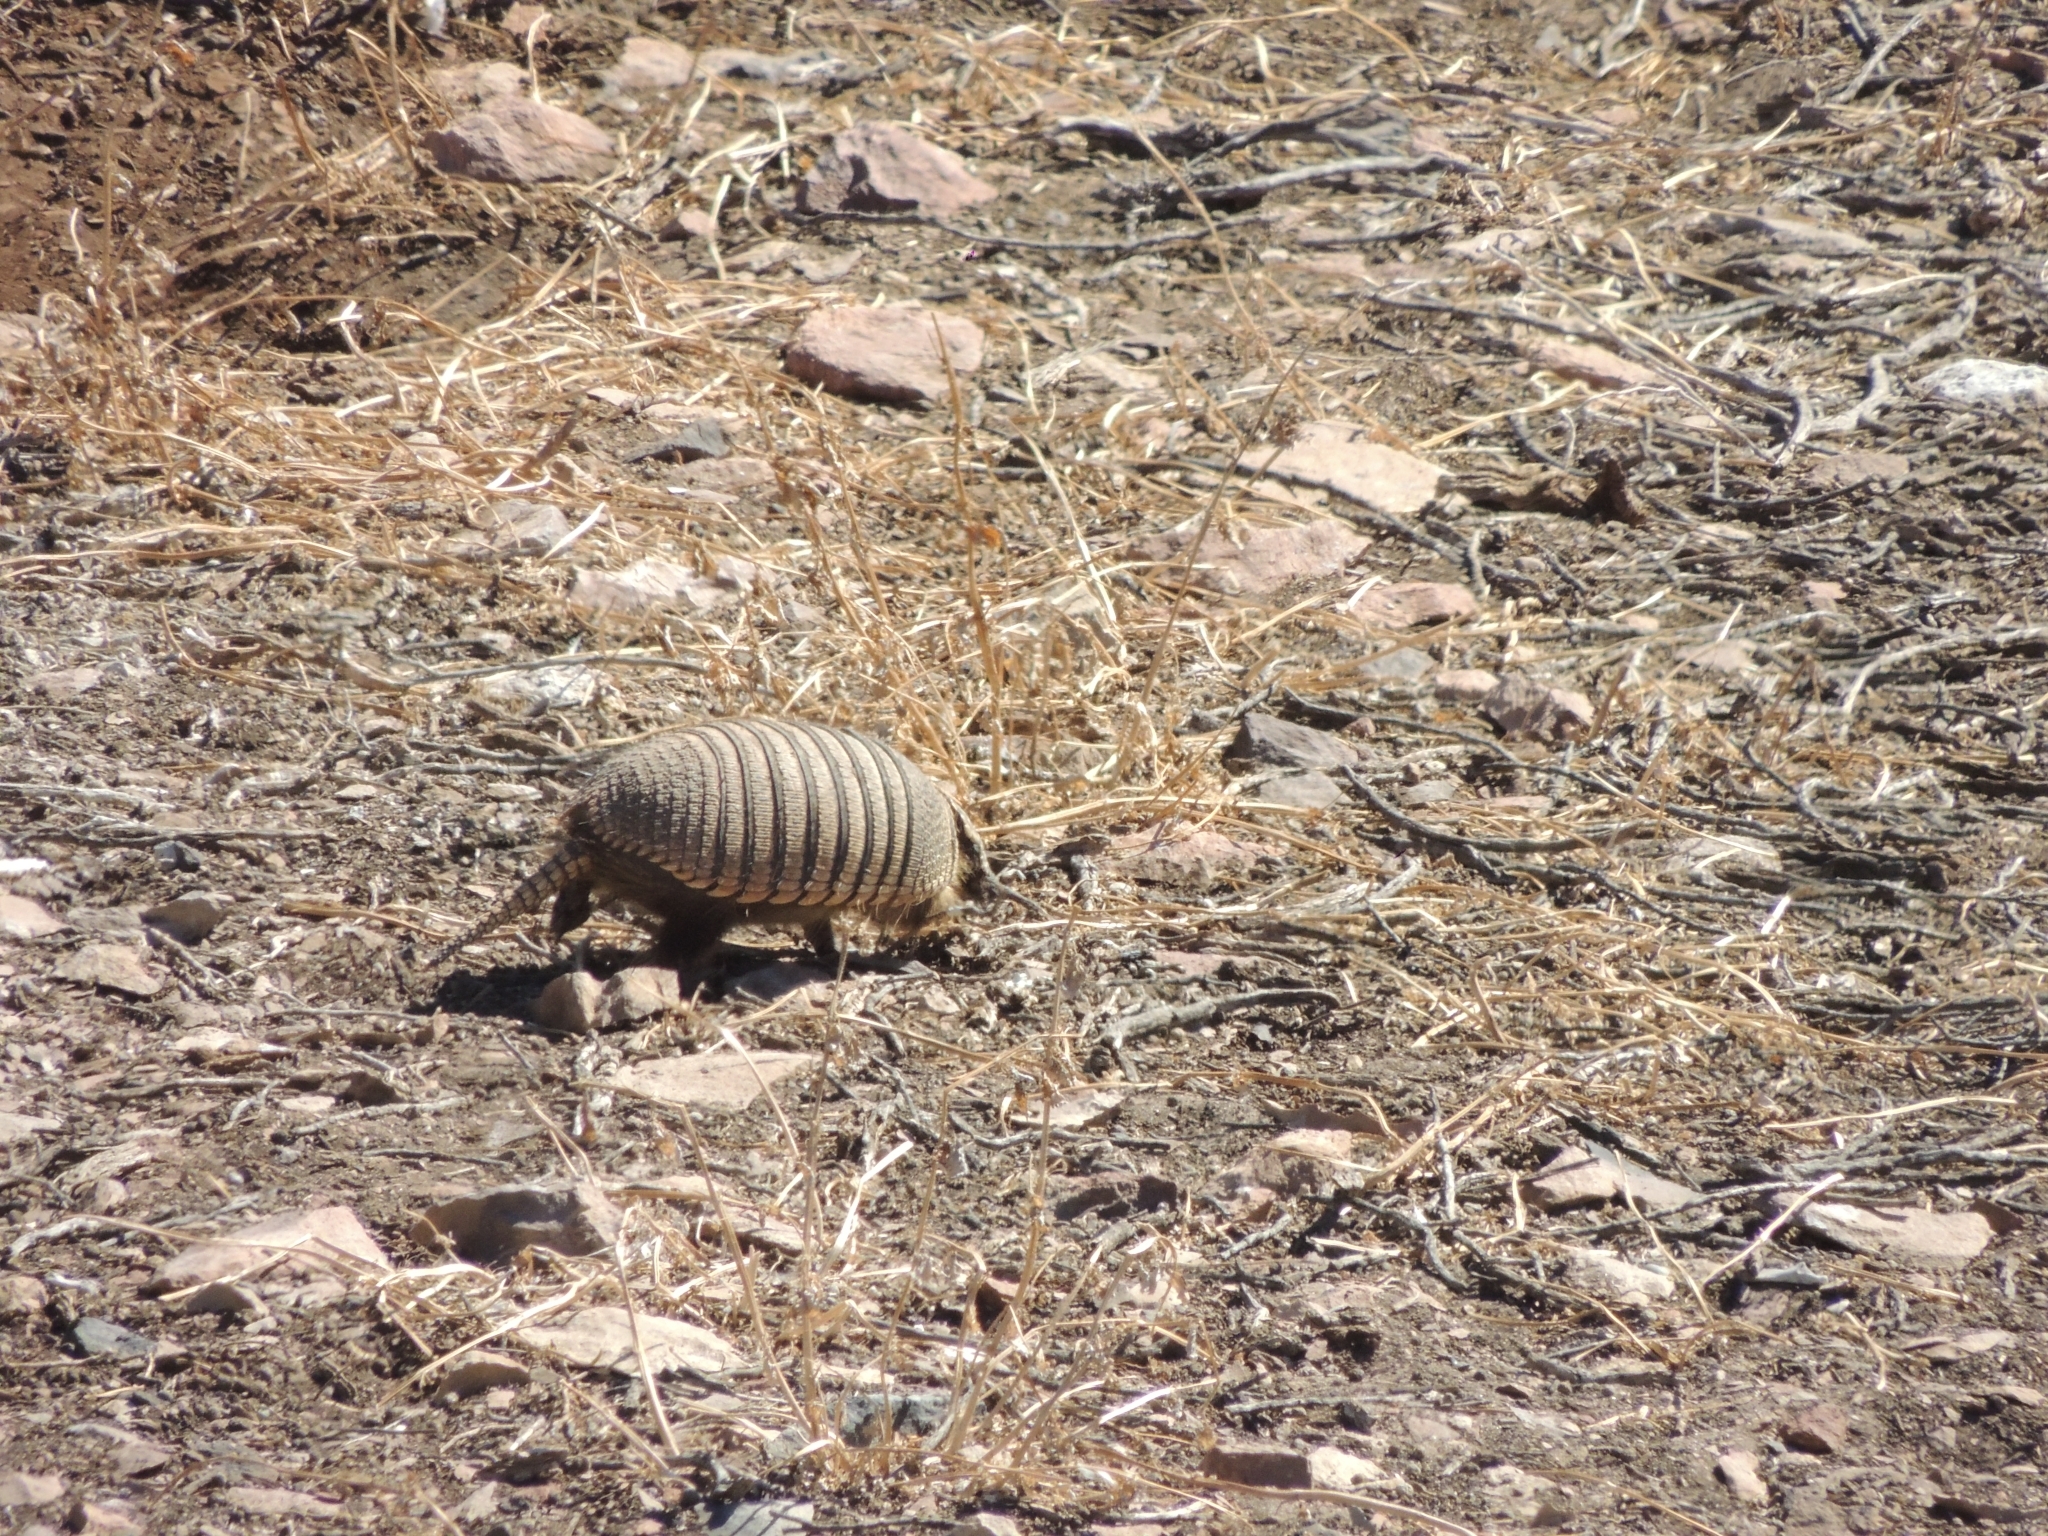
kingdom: Animalia
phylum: Chordata
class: Mammalia
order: Cingulata
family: Dasypodidae
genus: Zaedyus
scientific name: Zaedyus pichiy
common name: Pichi
